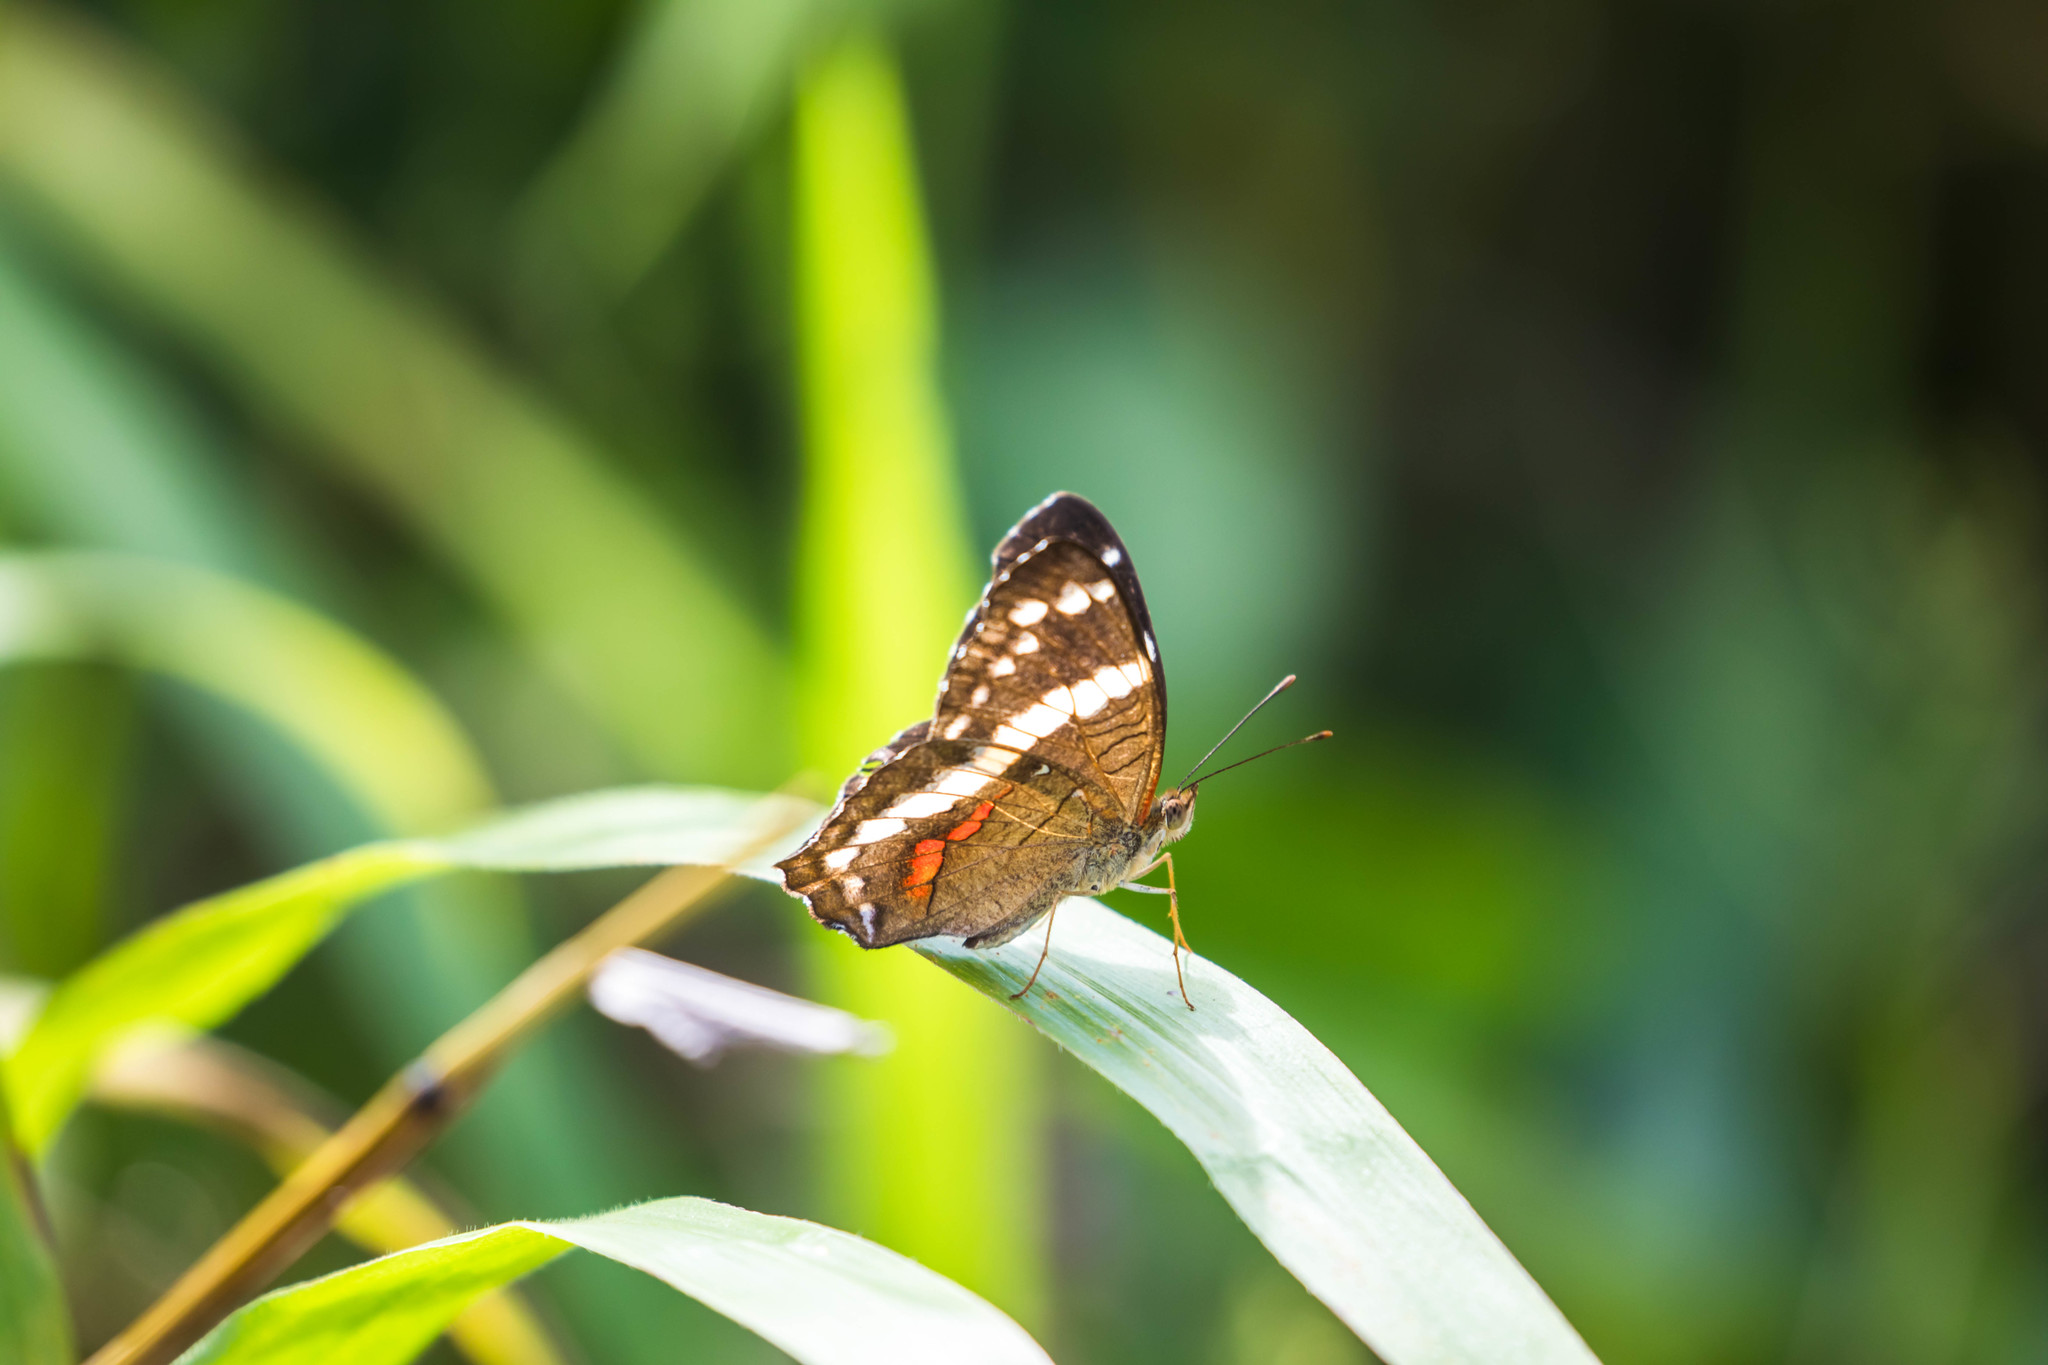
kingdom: Animalia
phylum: Arthropoda
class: Insecta
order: Lepidoptera
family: Nymphalidae
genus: Anartia
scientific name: Anartia fatima
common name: Banded peacock
